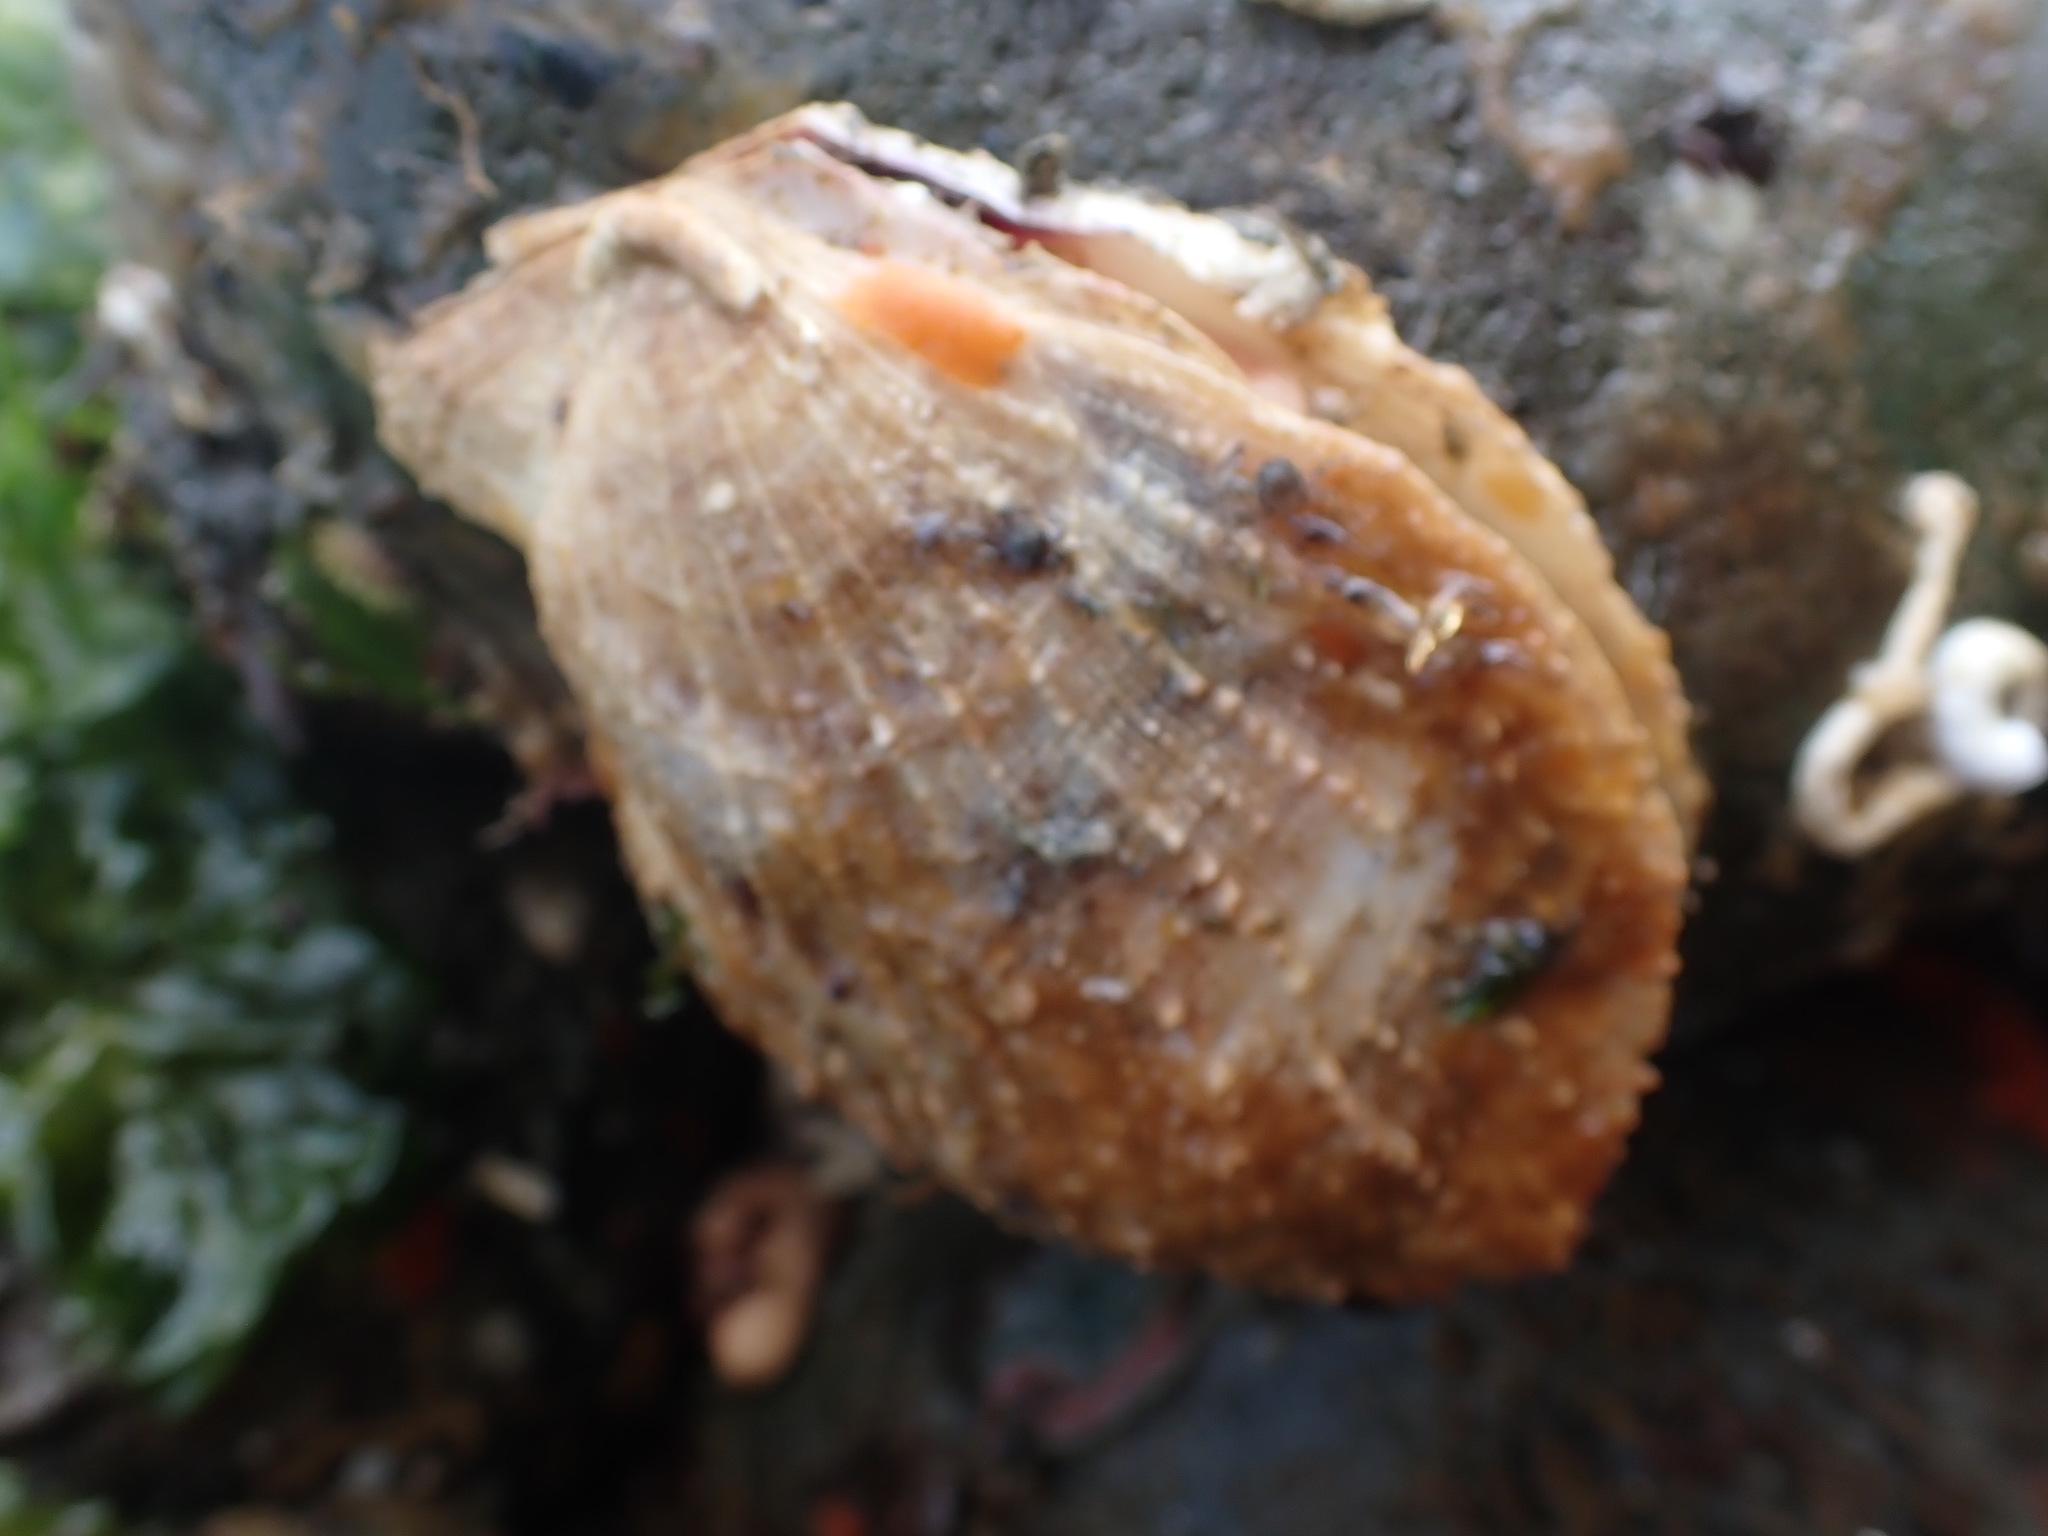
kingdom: Animalia
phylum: Mollusca
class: Bivalvia
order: Pectinida
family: Pectinidae
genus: Crassadoma
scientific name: Crassadoma gigantea
